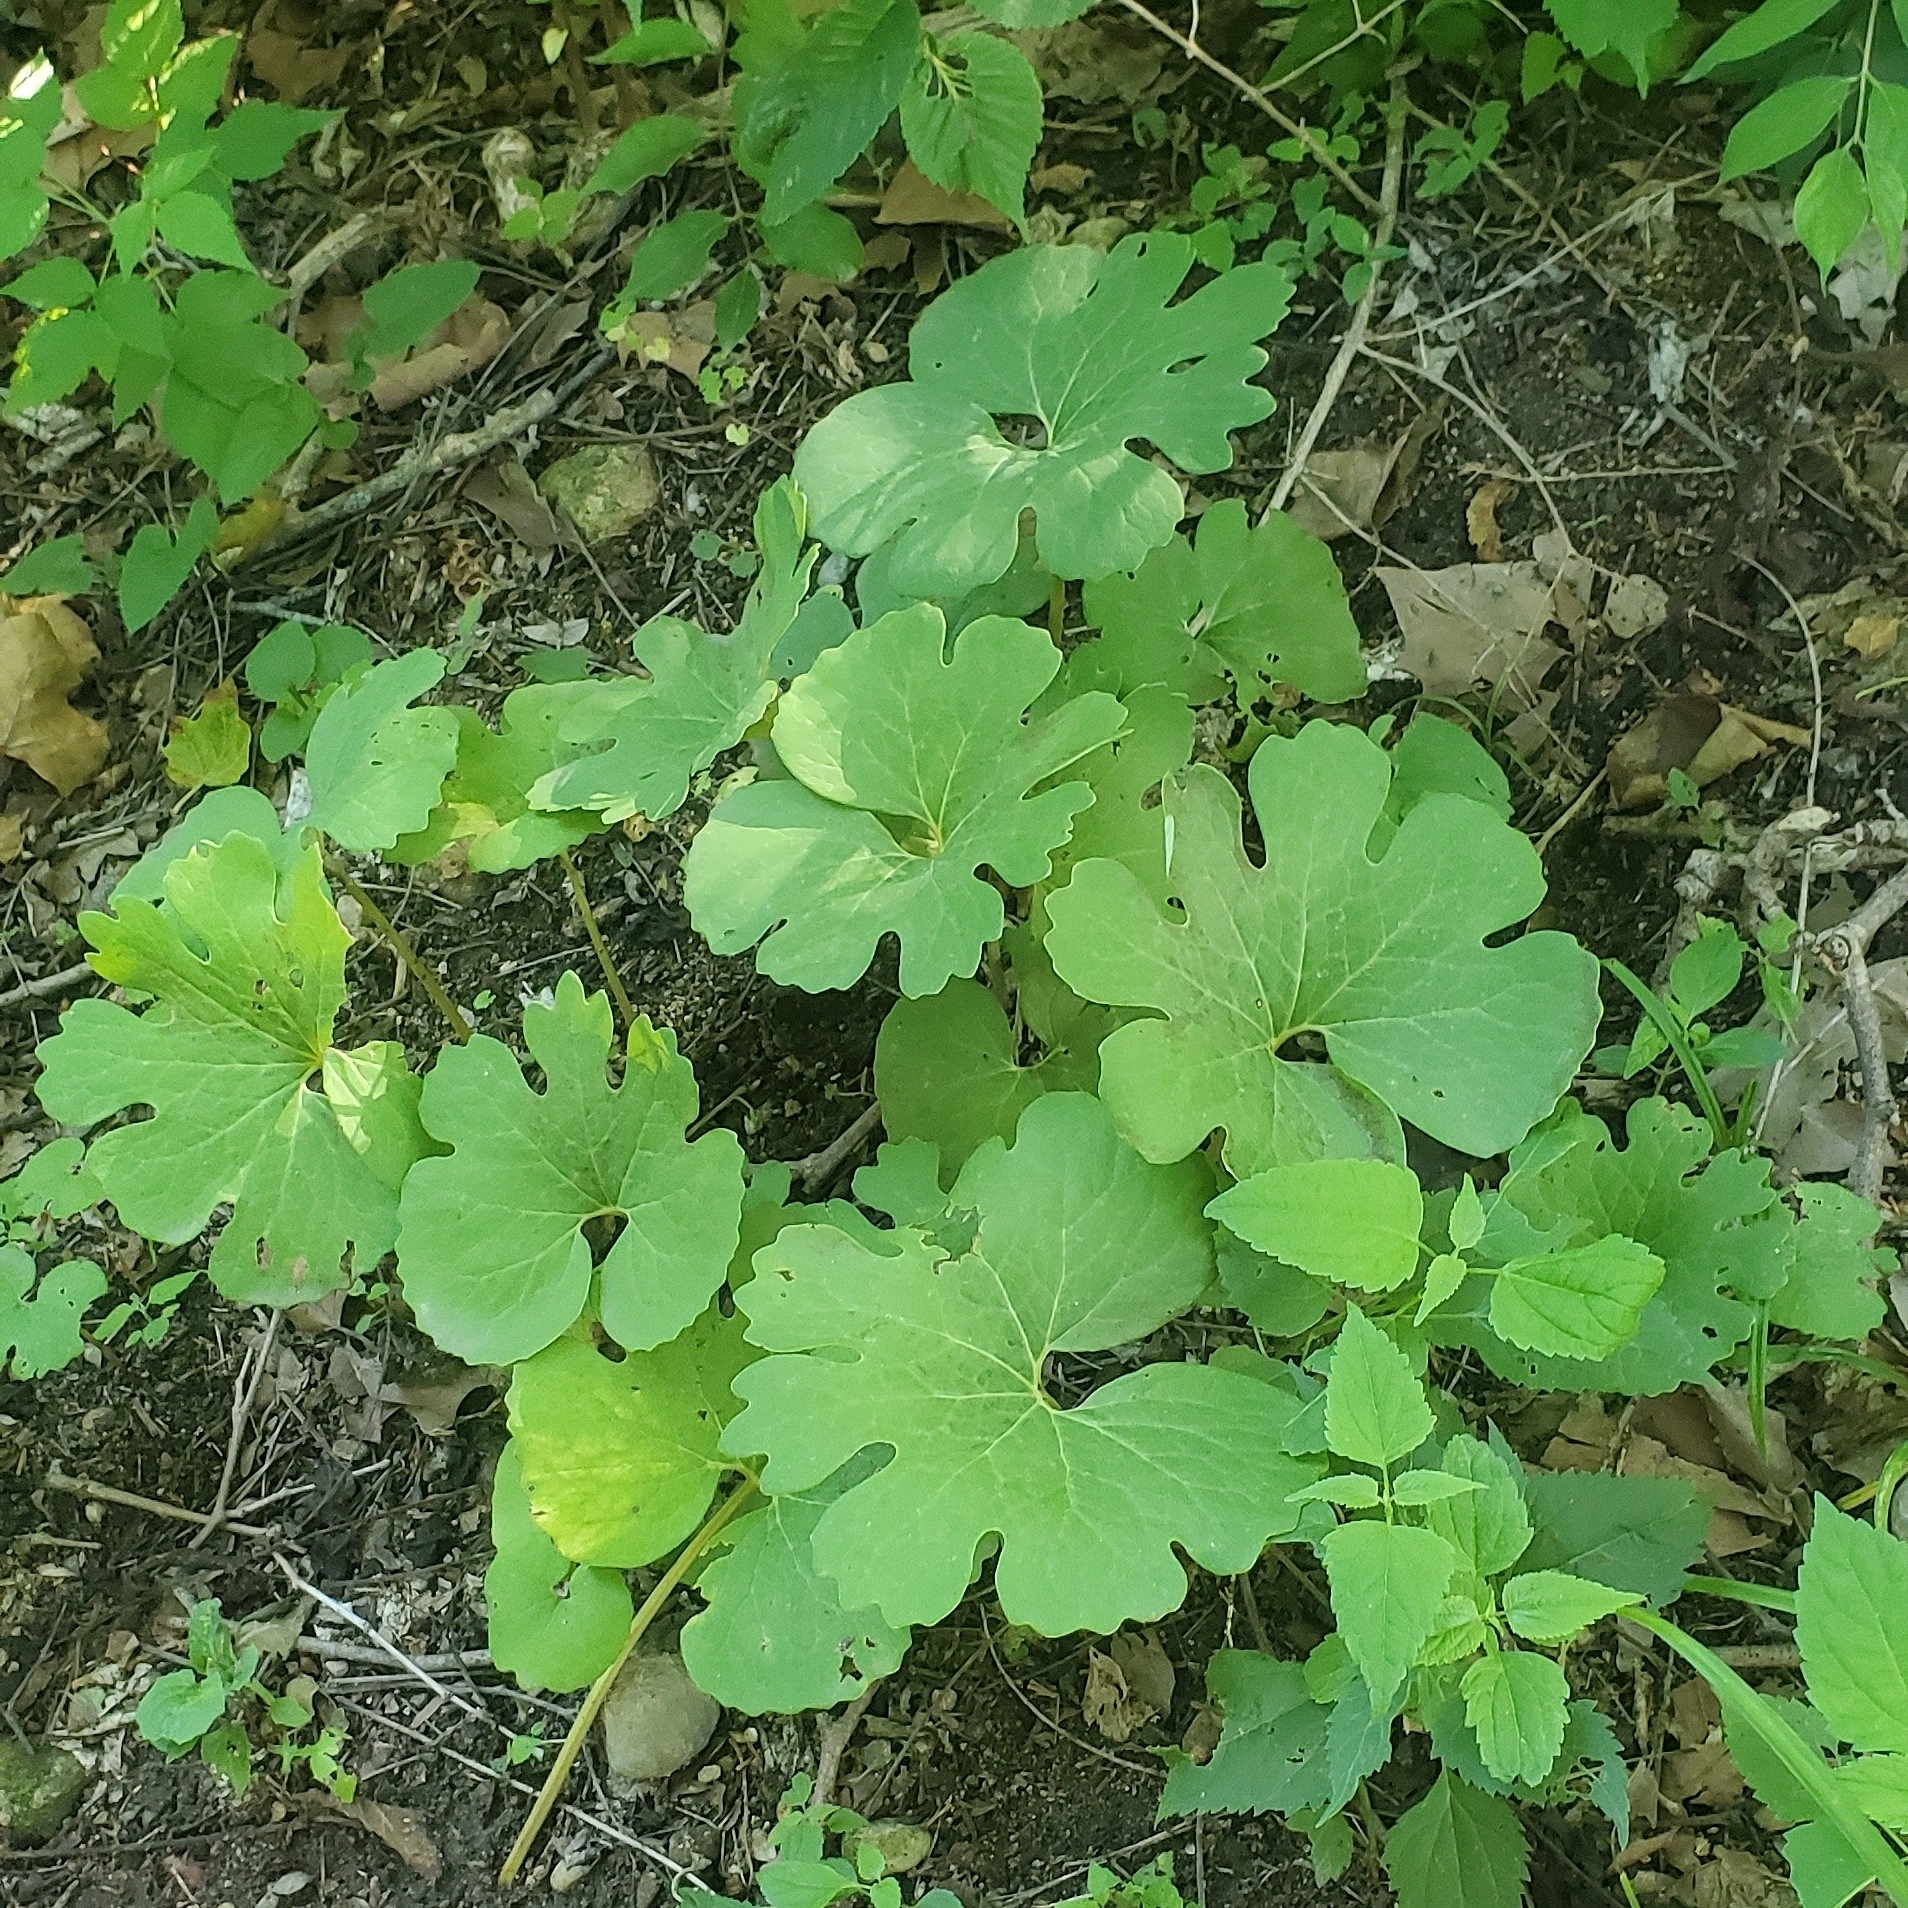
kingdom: Plantae
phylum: Tracheophyta
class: Magnoliopsida
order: Ranunculales
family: Papaveraceae
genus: Sanguinaria
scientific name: Sanguinaria canadensis
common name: Bloodroot
